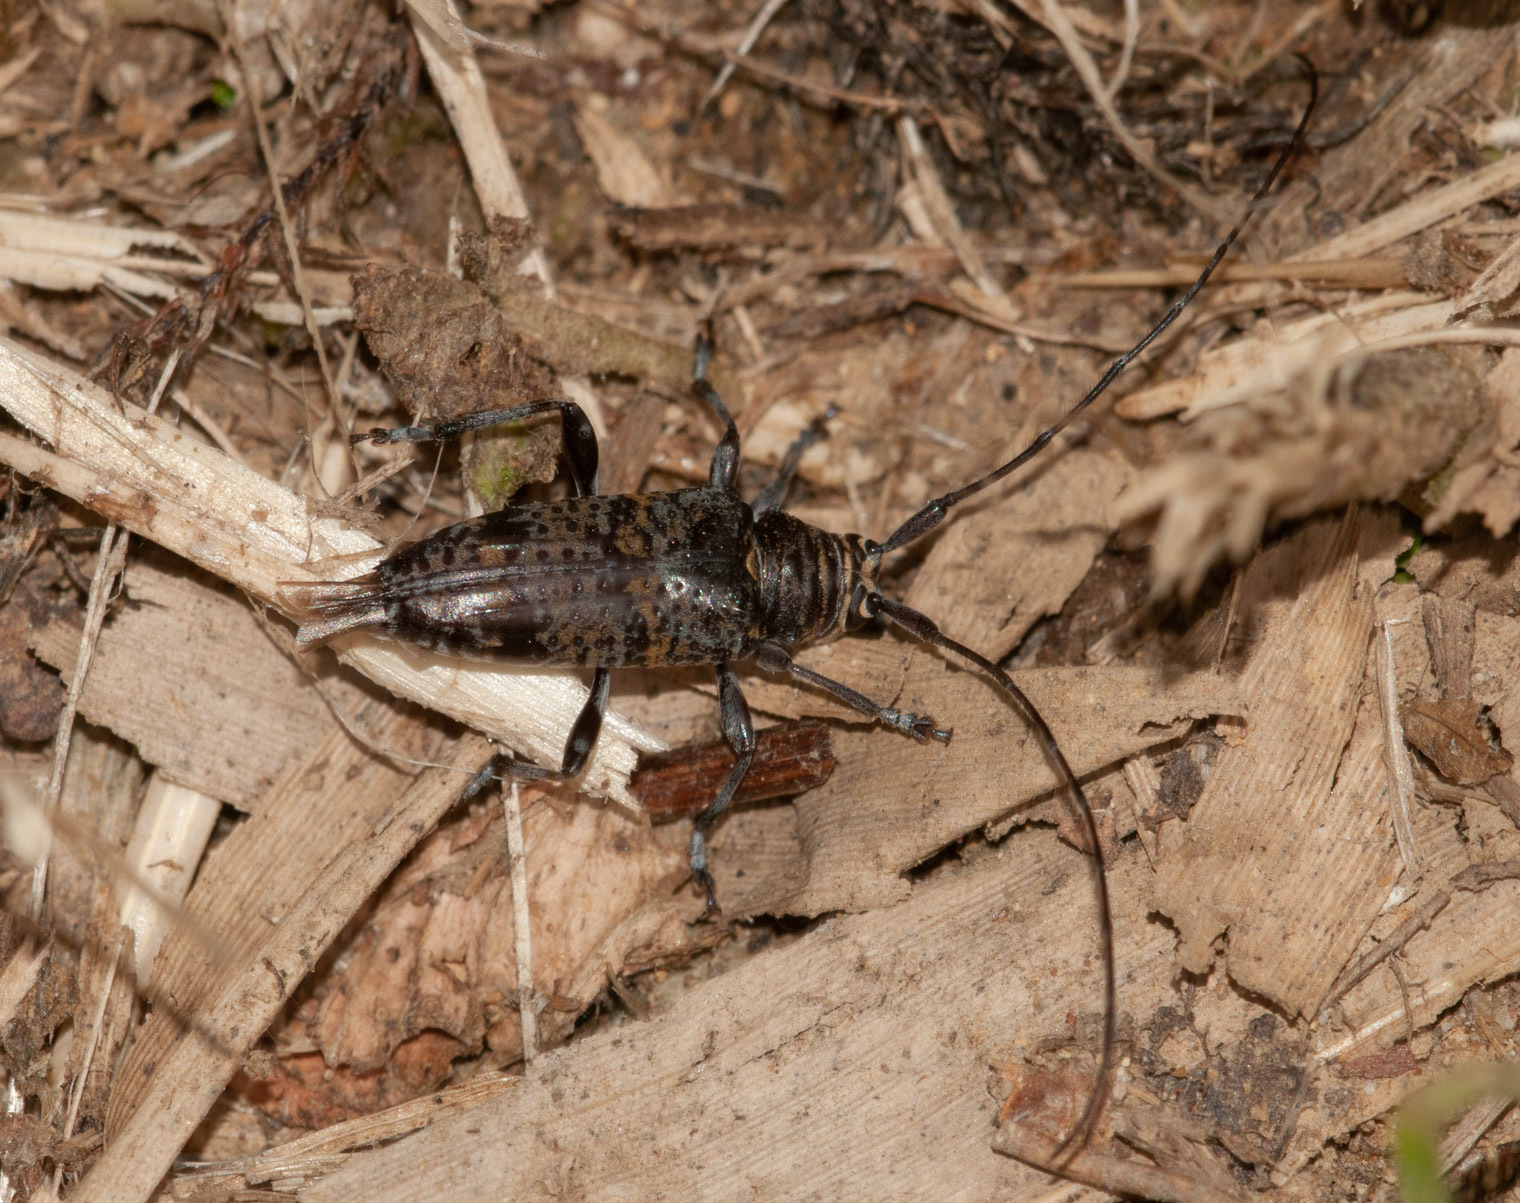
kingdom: Animalia
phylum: Arthropoda
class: Insecta
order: Coleoptera
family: Cerambycidae
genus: Disterna
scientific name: Disterna annulata
